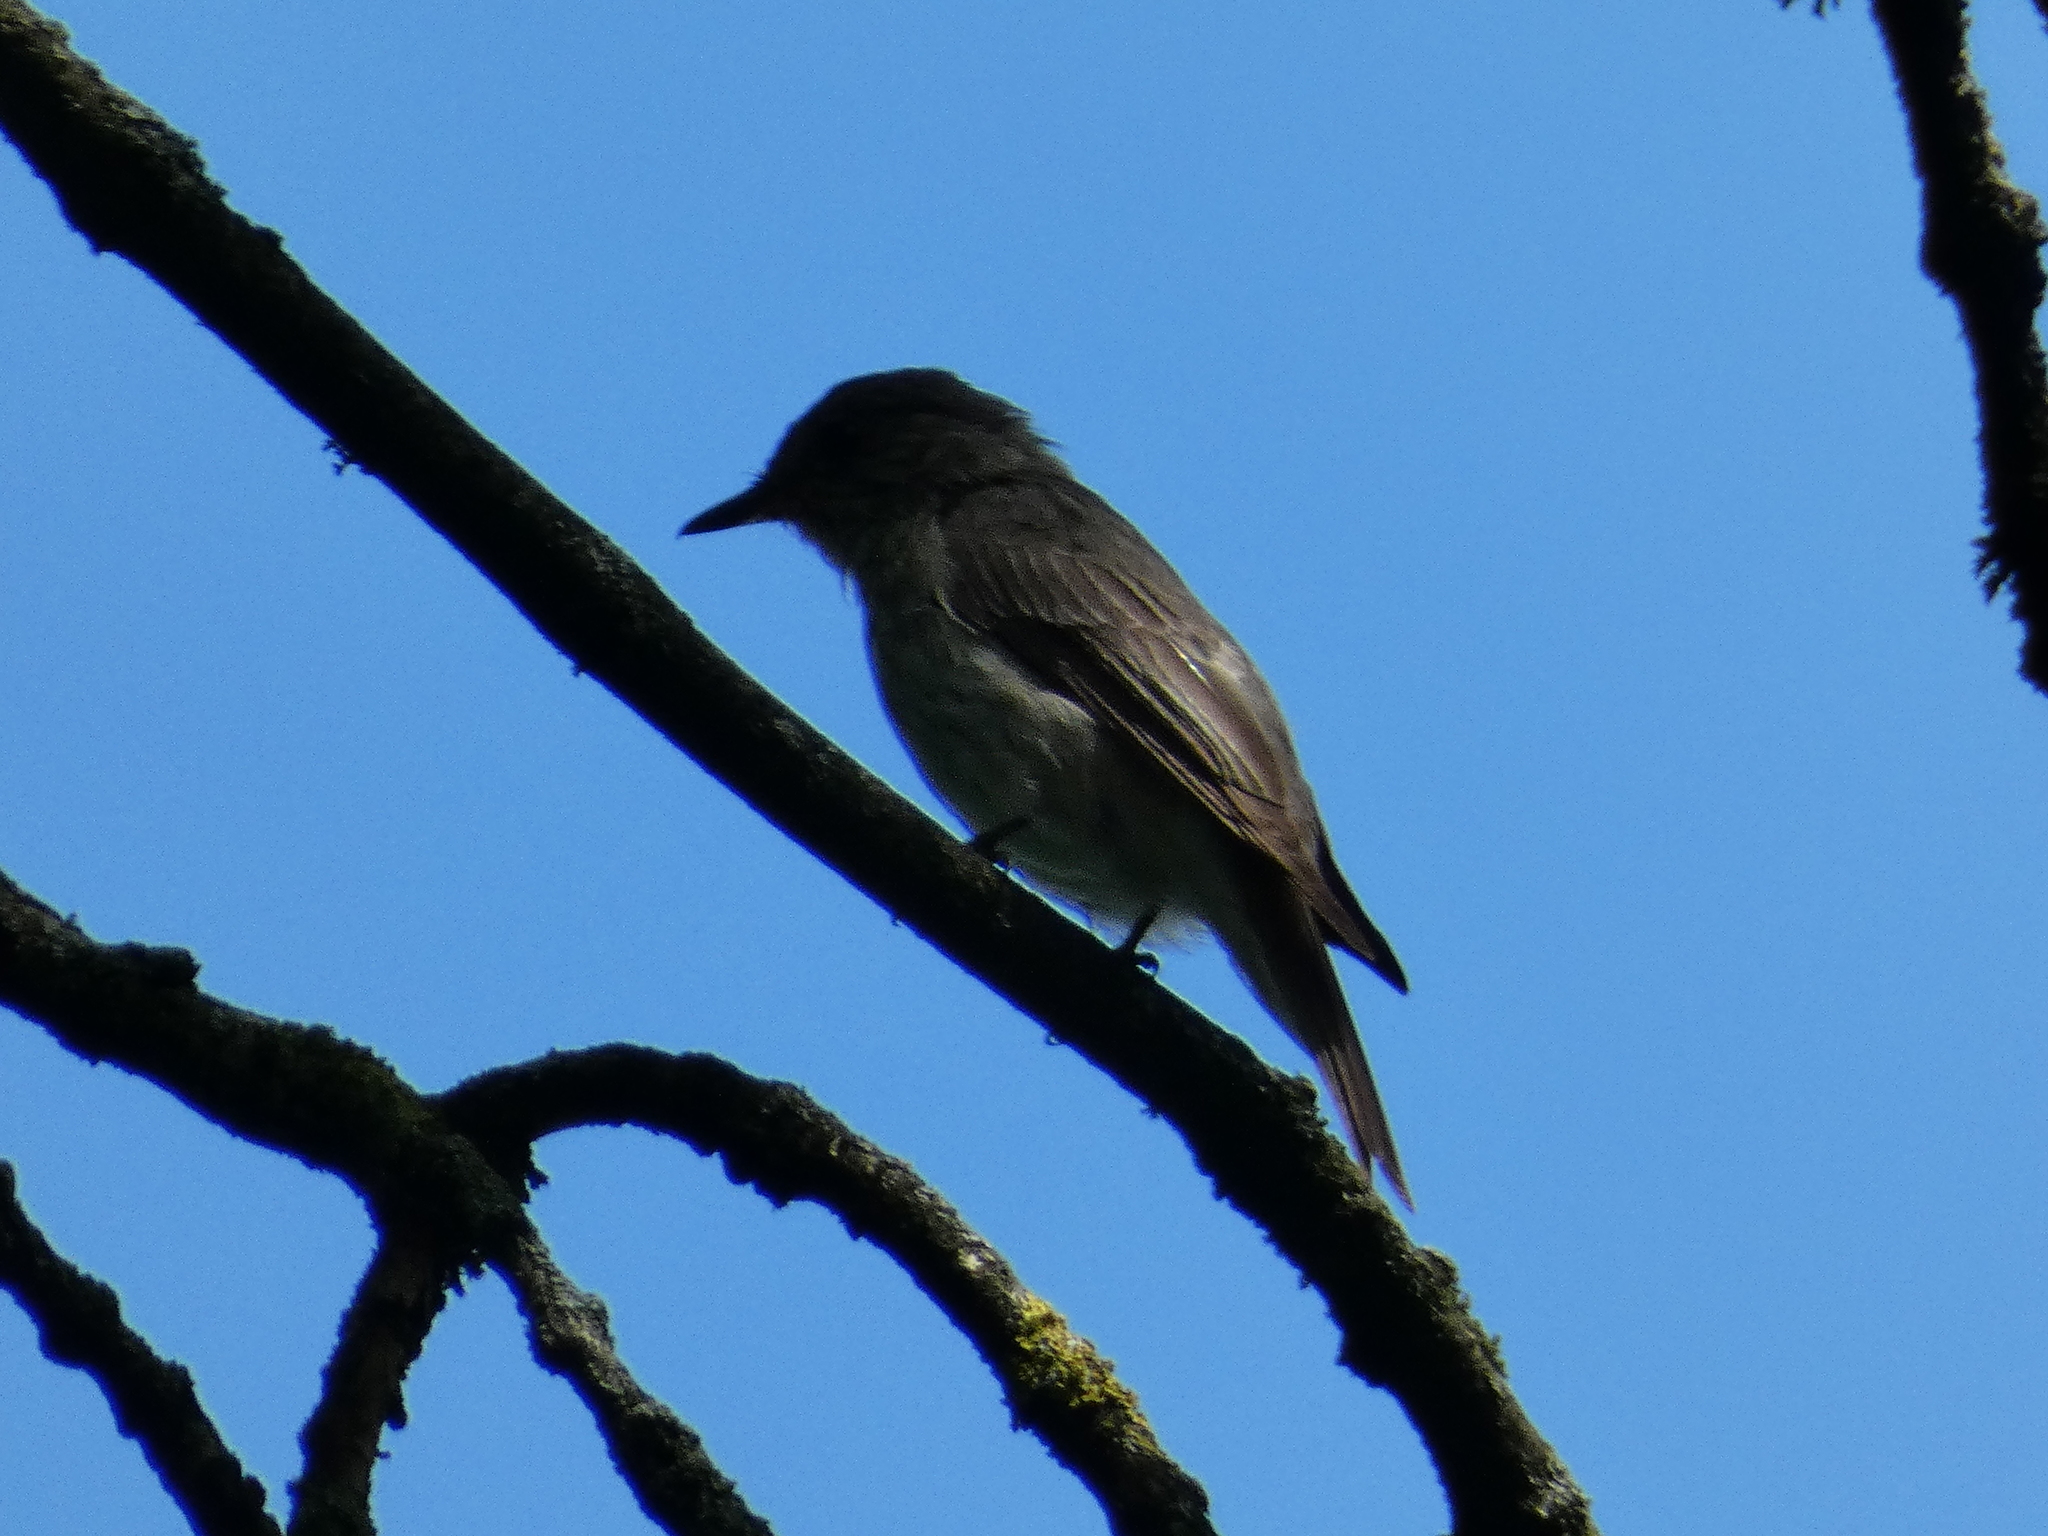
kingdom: Animalia
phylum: Chordata
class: Aves
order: Passeriformes
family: Muscicapidae
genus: Muscicapa
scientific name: Muscicapa striata
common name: Spotted flycatcher
